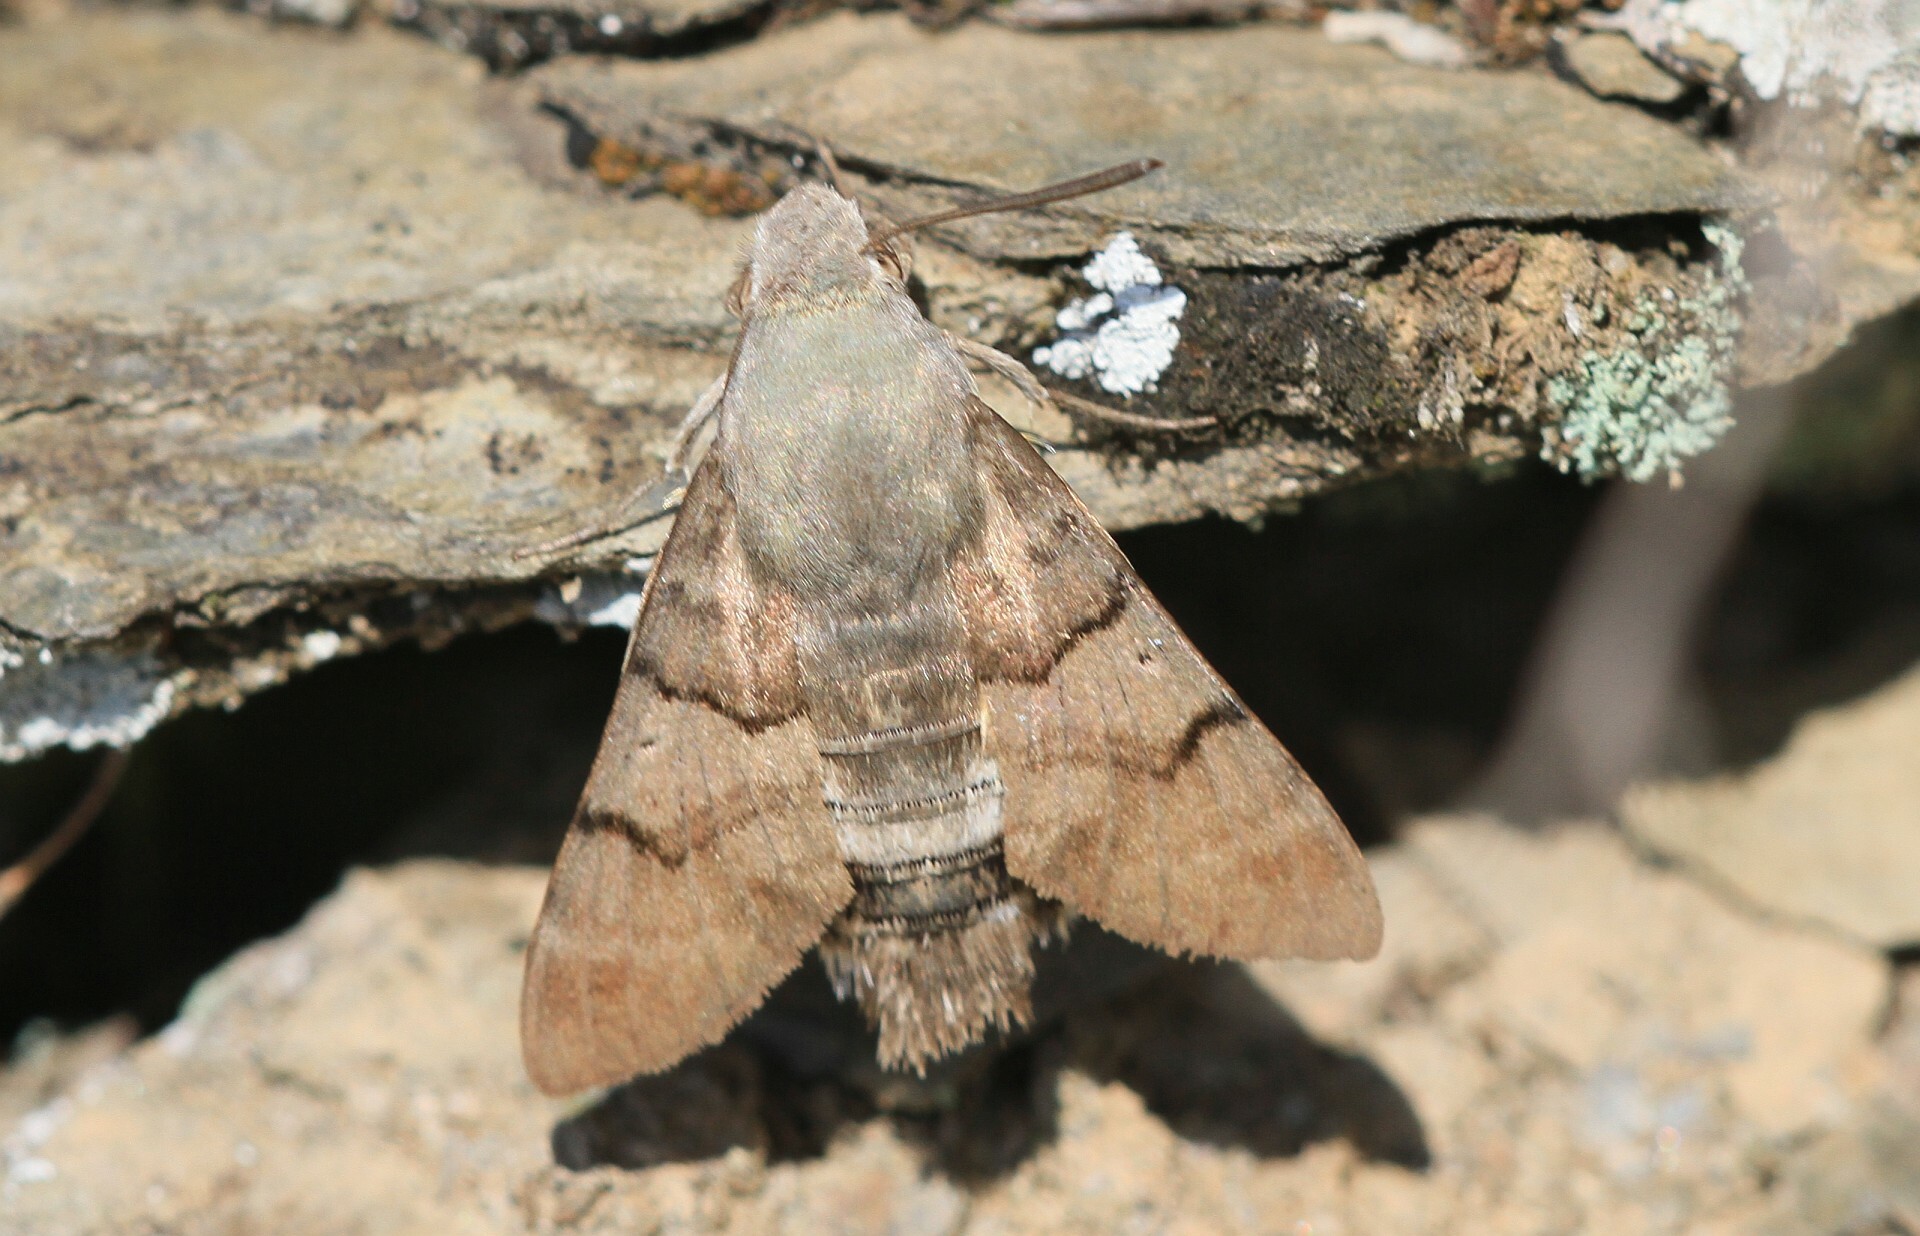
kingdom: Animalia
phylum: Arthropoda
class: Insecta
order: Lepidoptera
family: Sphingidae
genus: Macroglossum
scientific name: Macroglossum stellatarum
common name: Humming-bird hawk-moth
